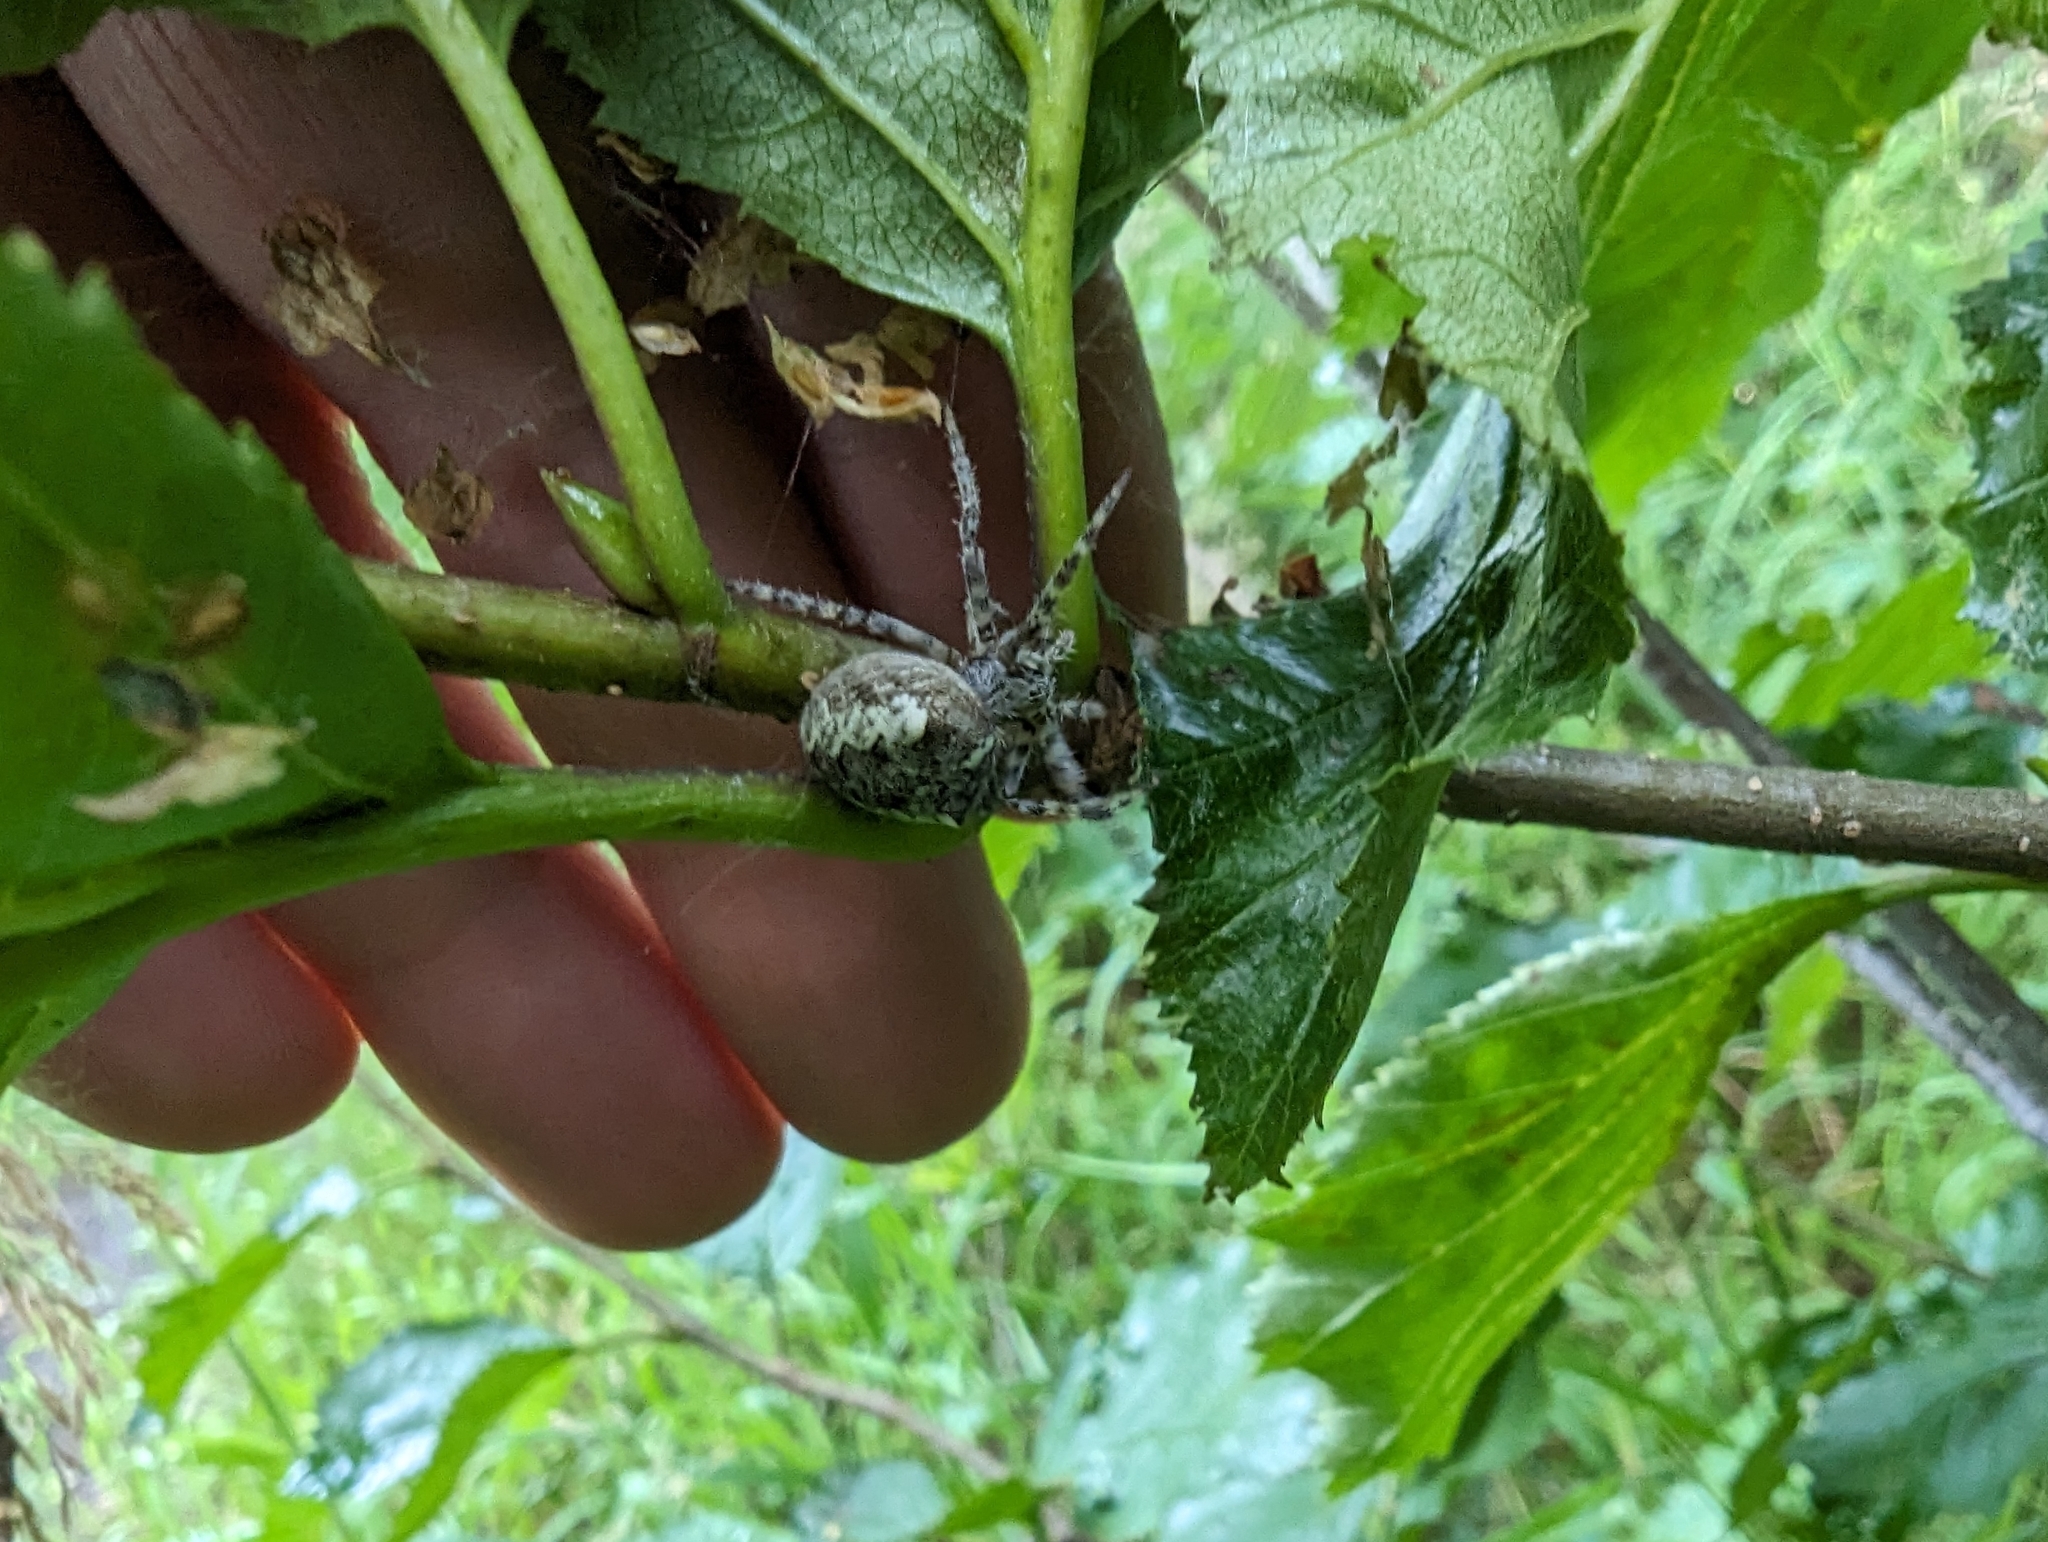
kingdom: Animalia
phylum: Arthropoda
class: Arachnida
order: Araneae
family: Araneidae
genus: Araneus
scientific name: Araneus nordmanni
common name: Nordmann's orbweaver
